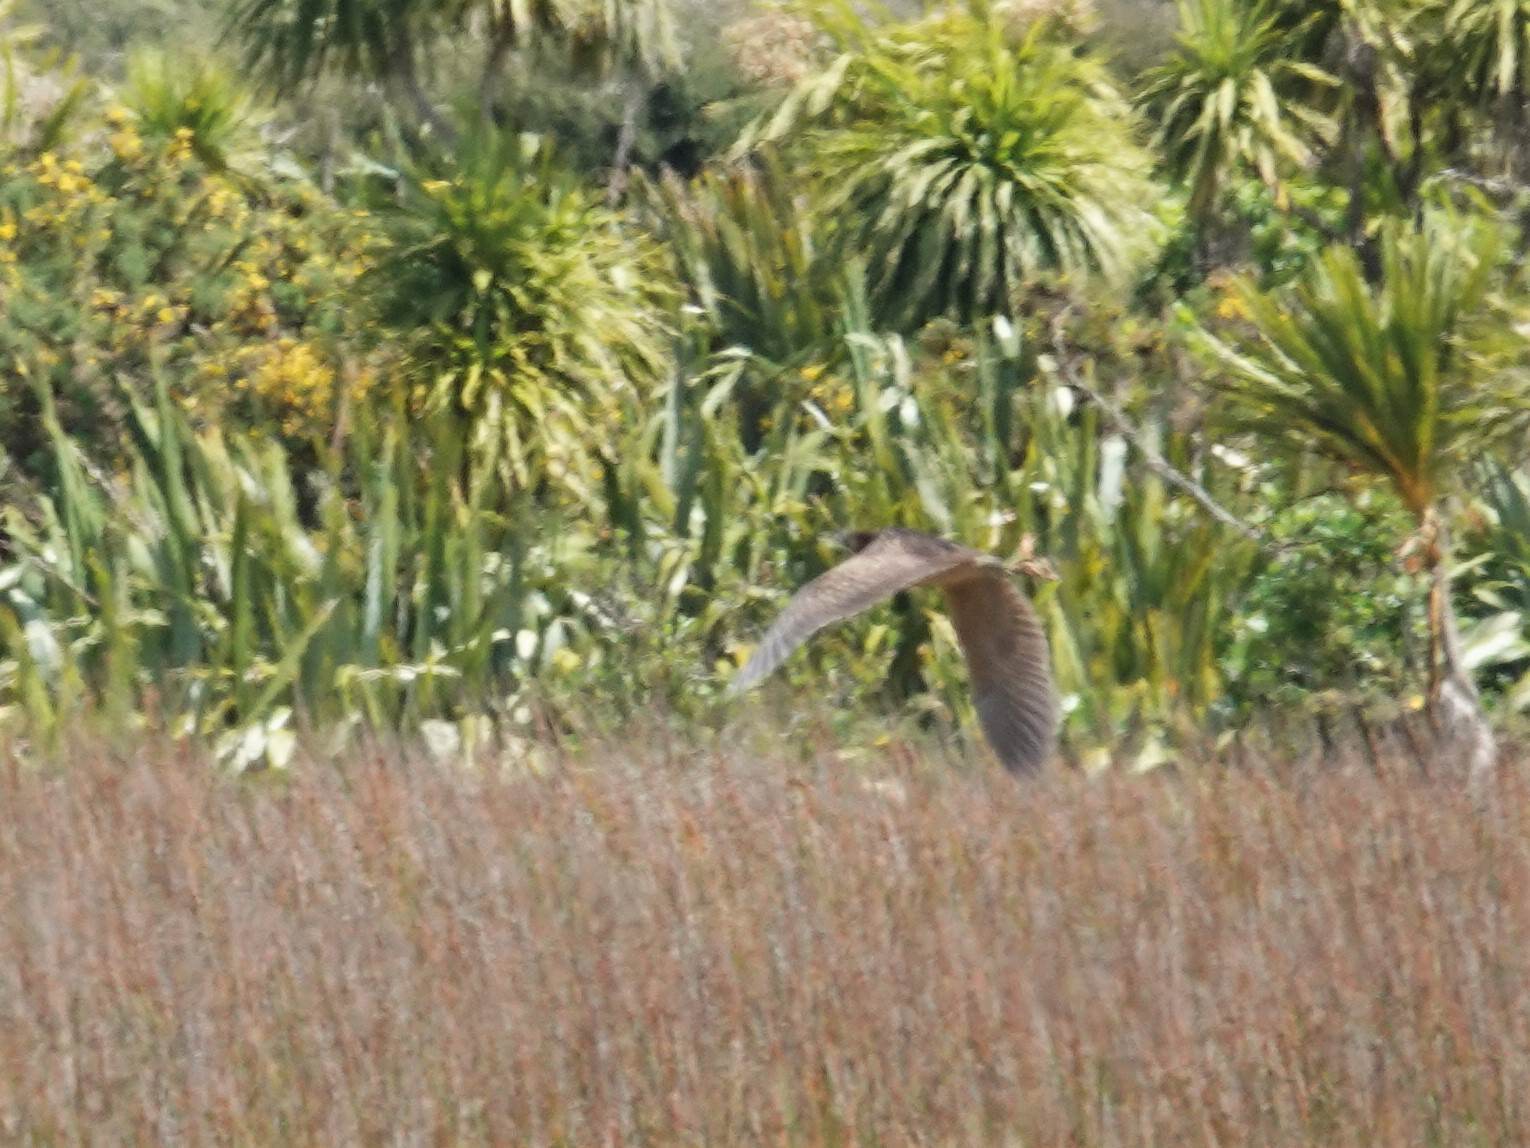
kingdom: Animalia
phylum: Chordata
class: Aves
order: Pelecaniformes
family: Ardeidae
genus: Botaurus
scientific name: Botaurus poiciloptilus
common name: Australasian bittern
